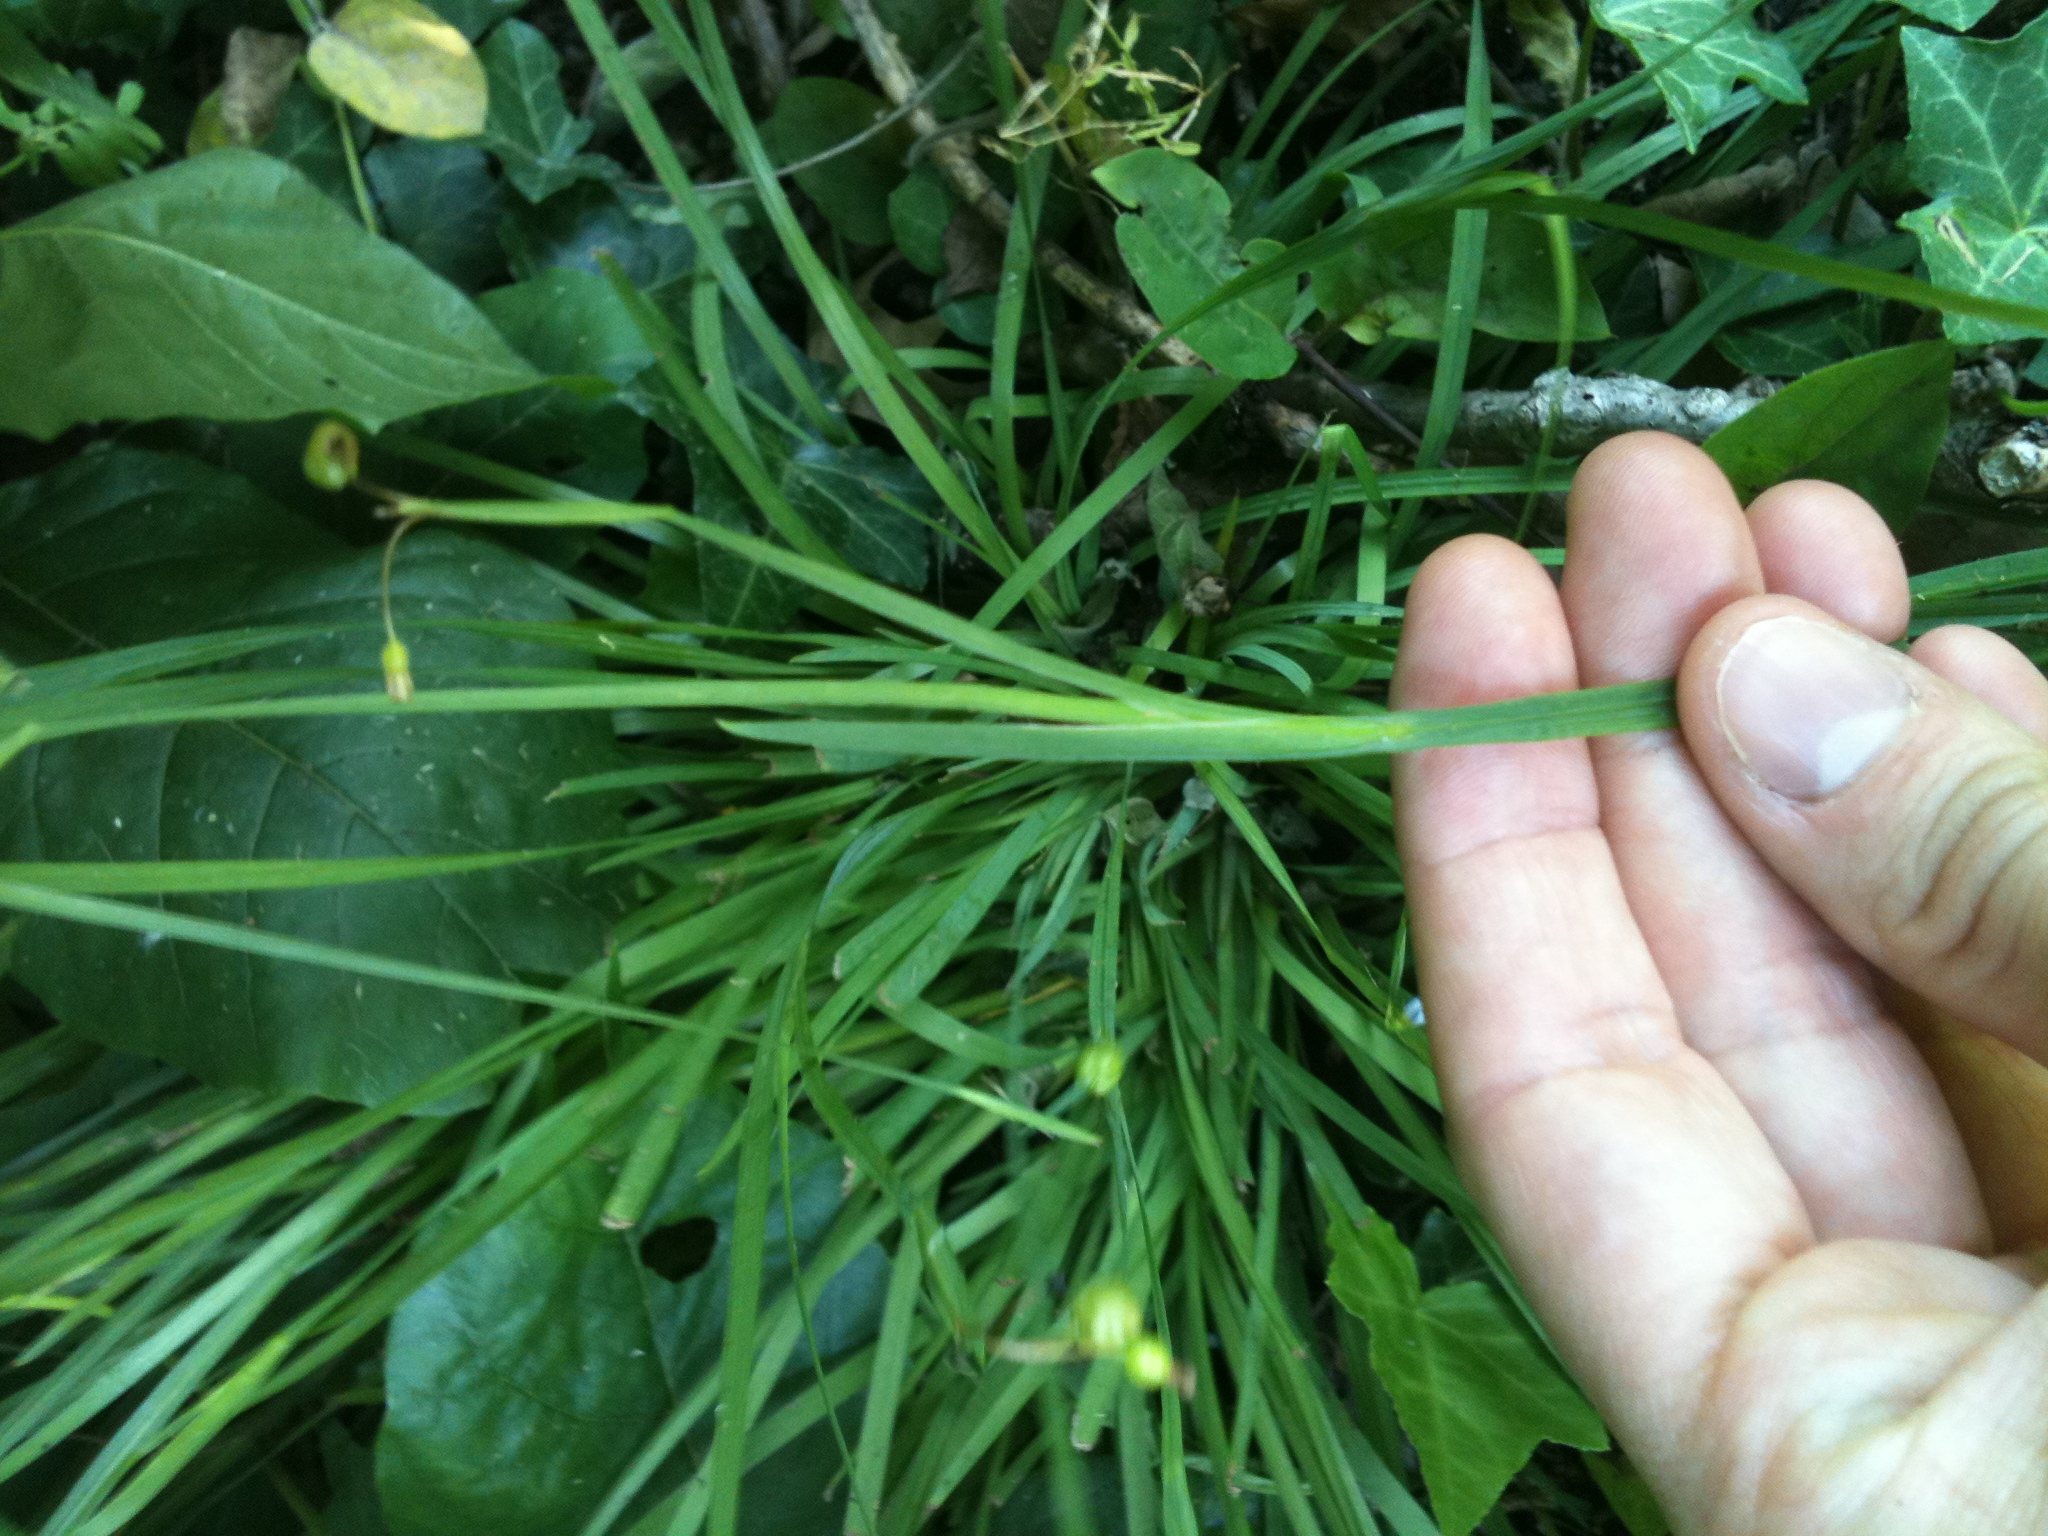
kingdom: Plantae
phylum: Tracheophyta
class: Liliopsida
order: Asparagales
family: Iridaceae
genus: Sisyrinchium
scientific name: Sisyrinchium angustifolium
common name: Narrow-leaf blue-eyed-grass
